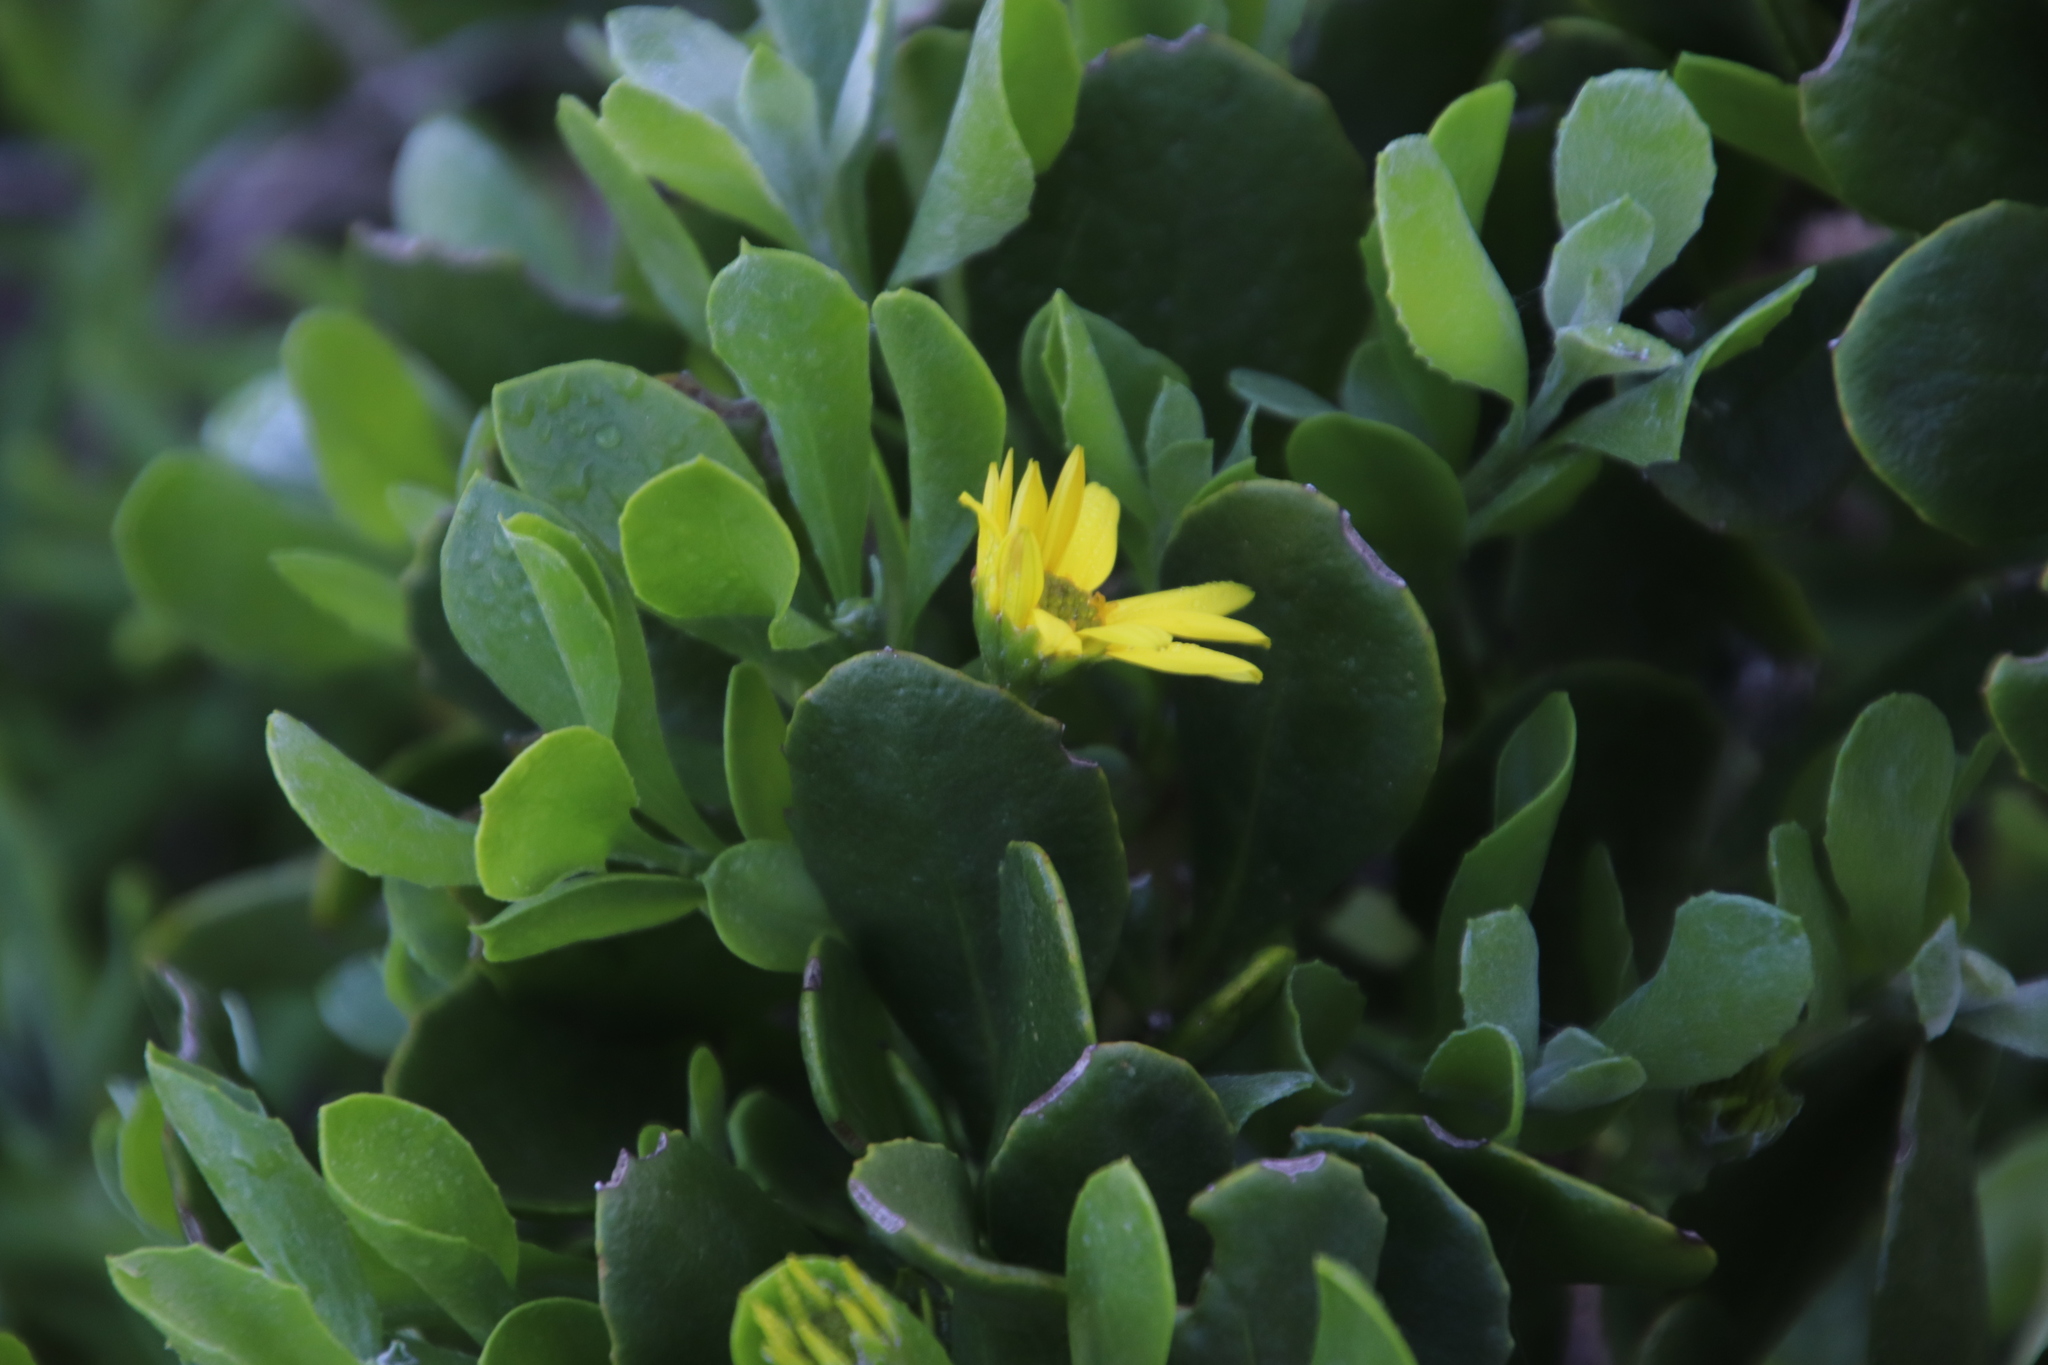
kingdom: Plantae
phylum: Tracheophyta
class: Magnoliopsida
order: Asterales
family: Asteraceae
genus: Osteospermum
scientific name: Osteospermum moniliferum
